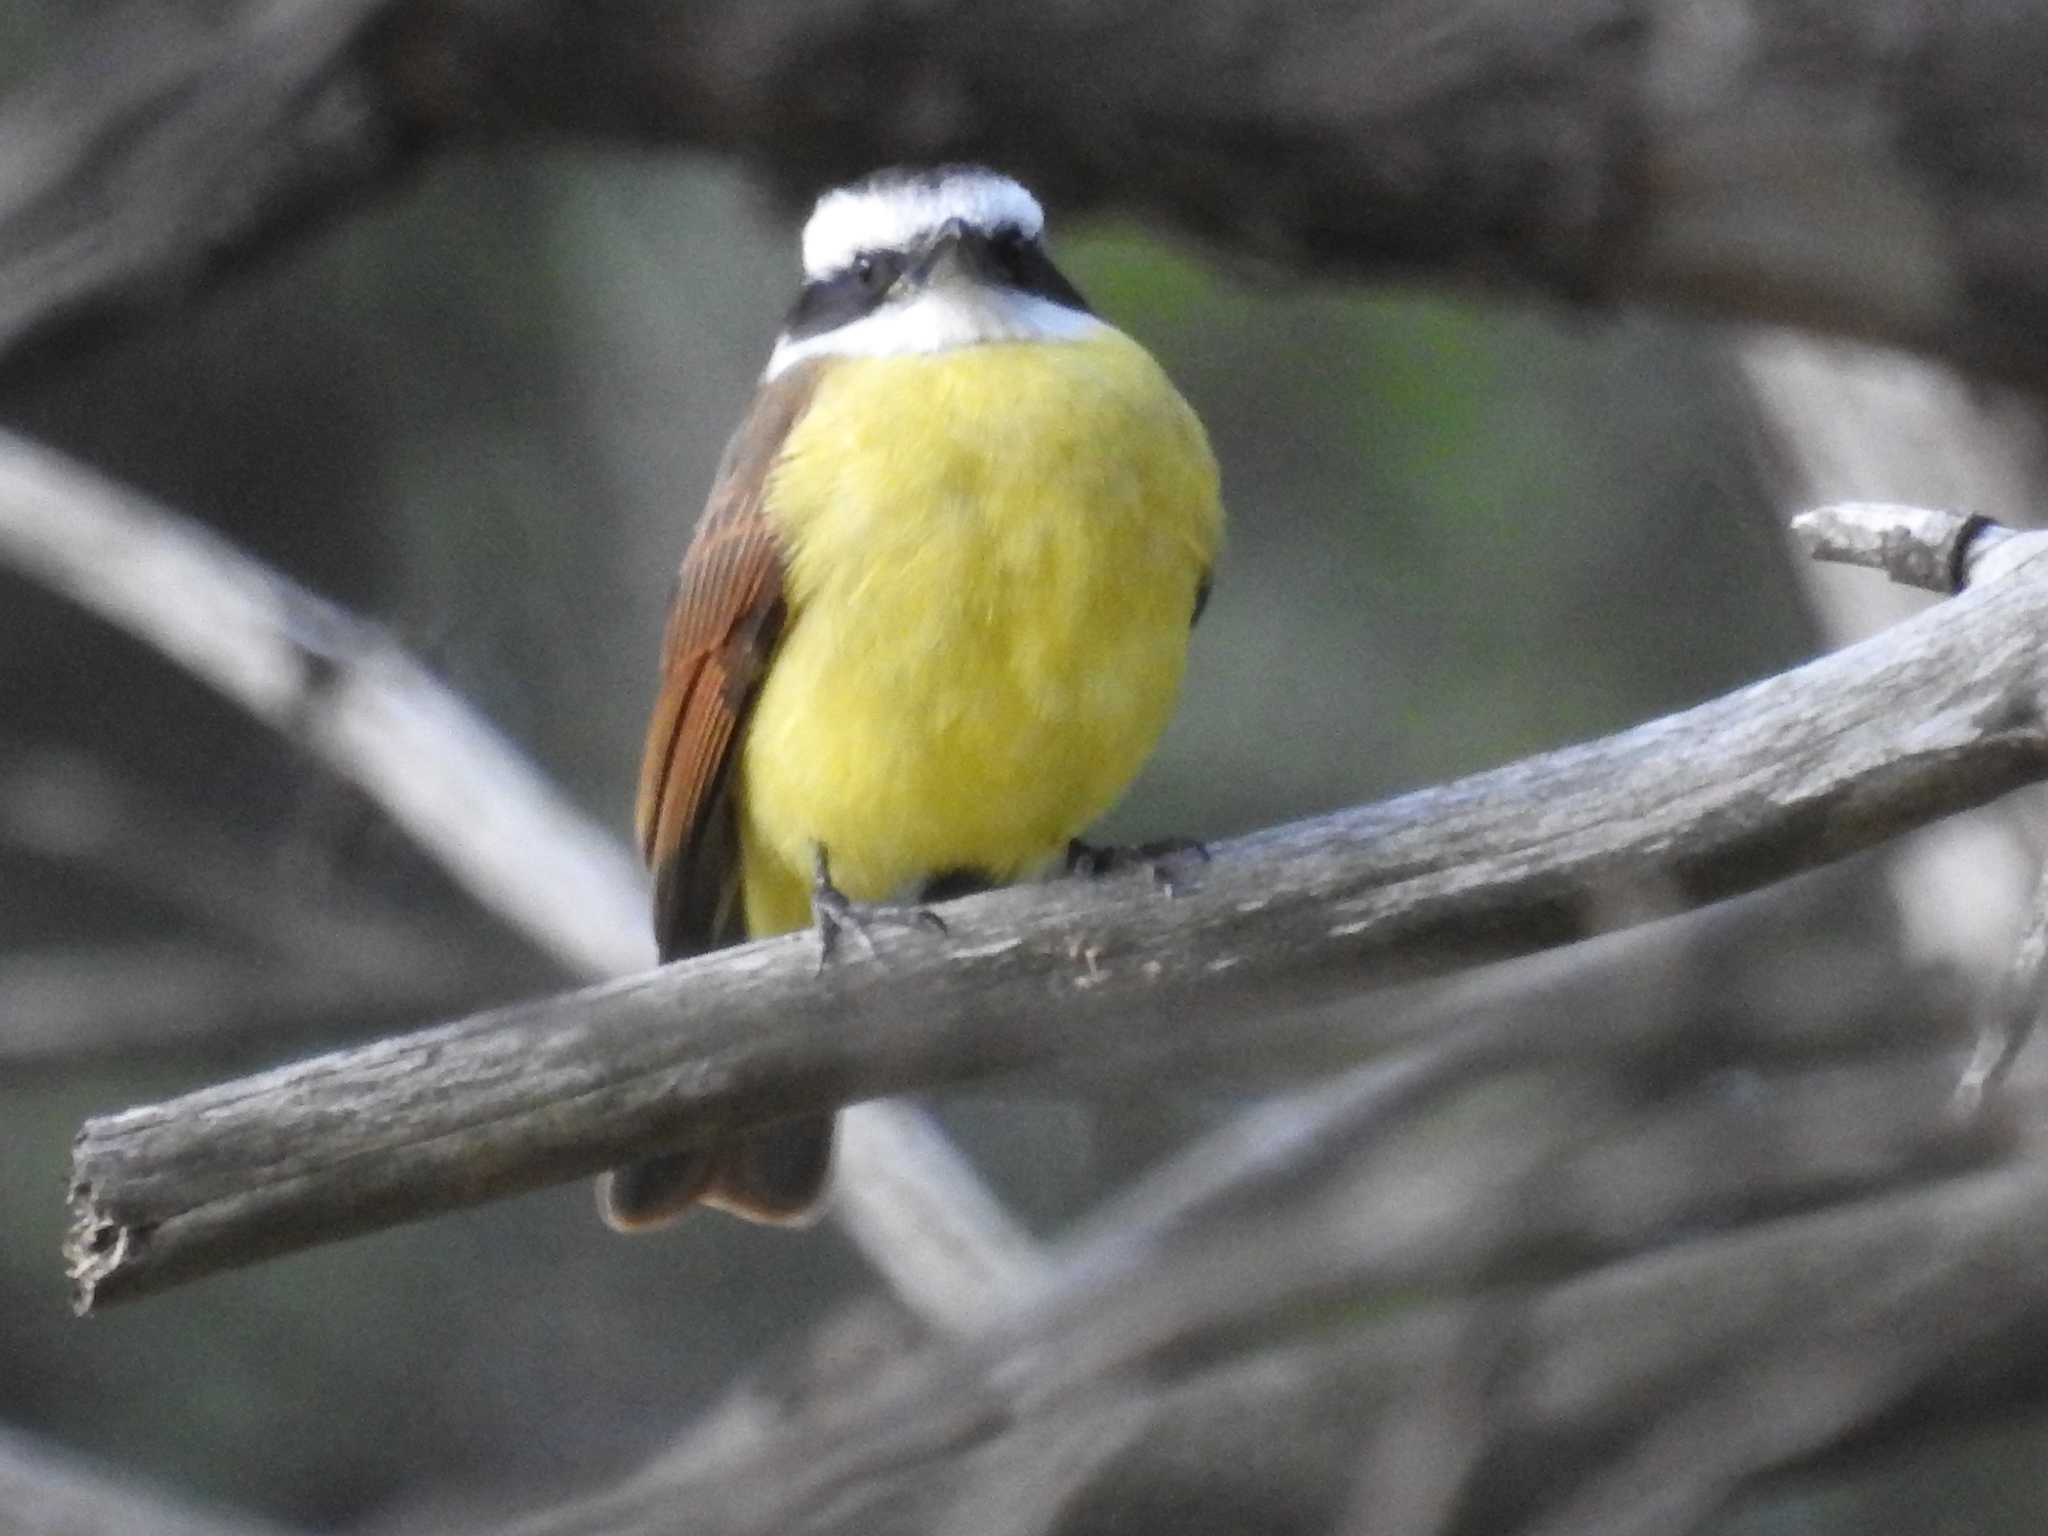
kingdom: Animalia
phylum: Chordata
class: Aves
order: Passeriformes
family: Tyrannidae
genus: Pitangus
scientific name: Pitangus sulphuratus
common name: Great kiskadee
